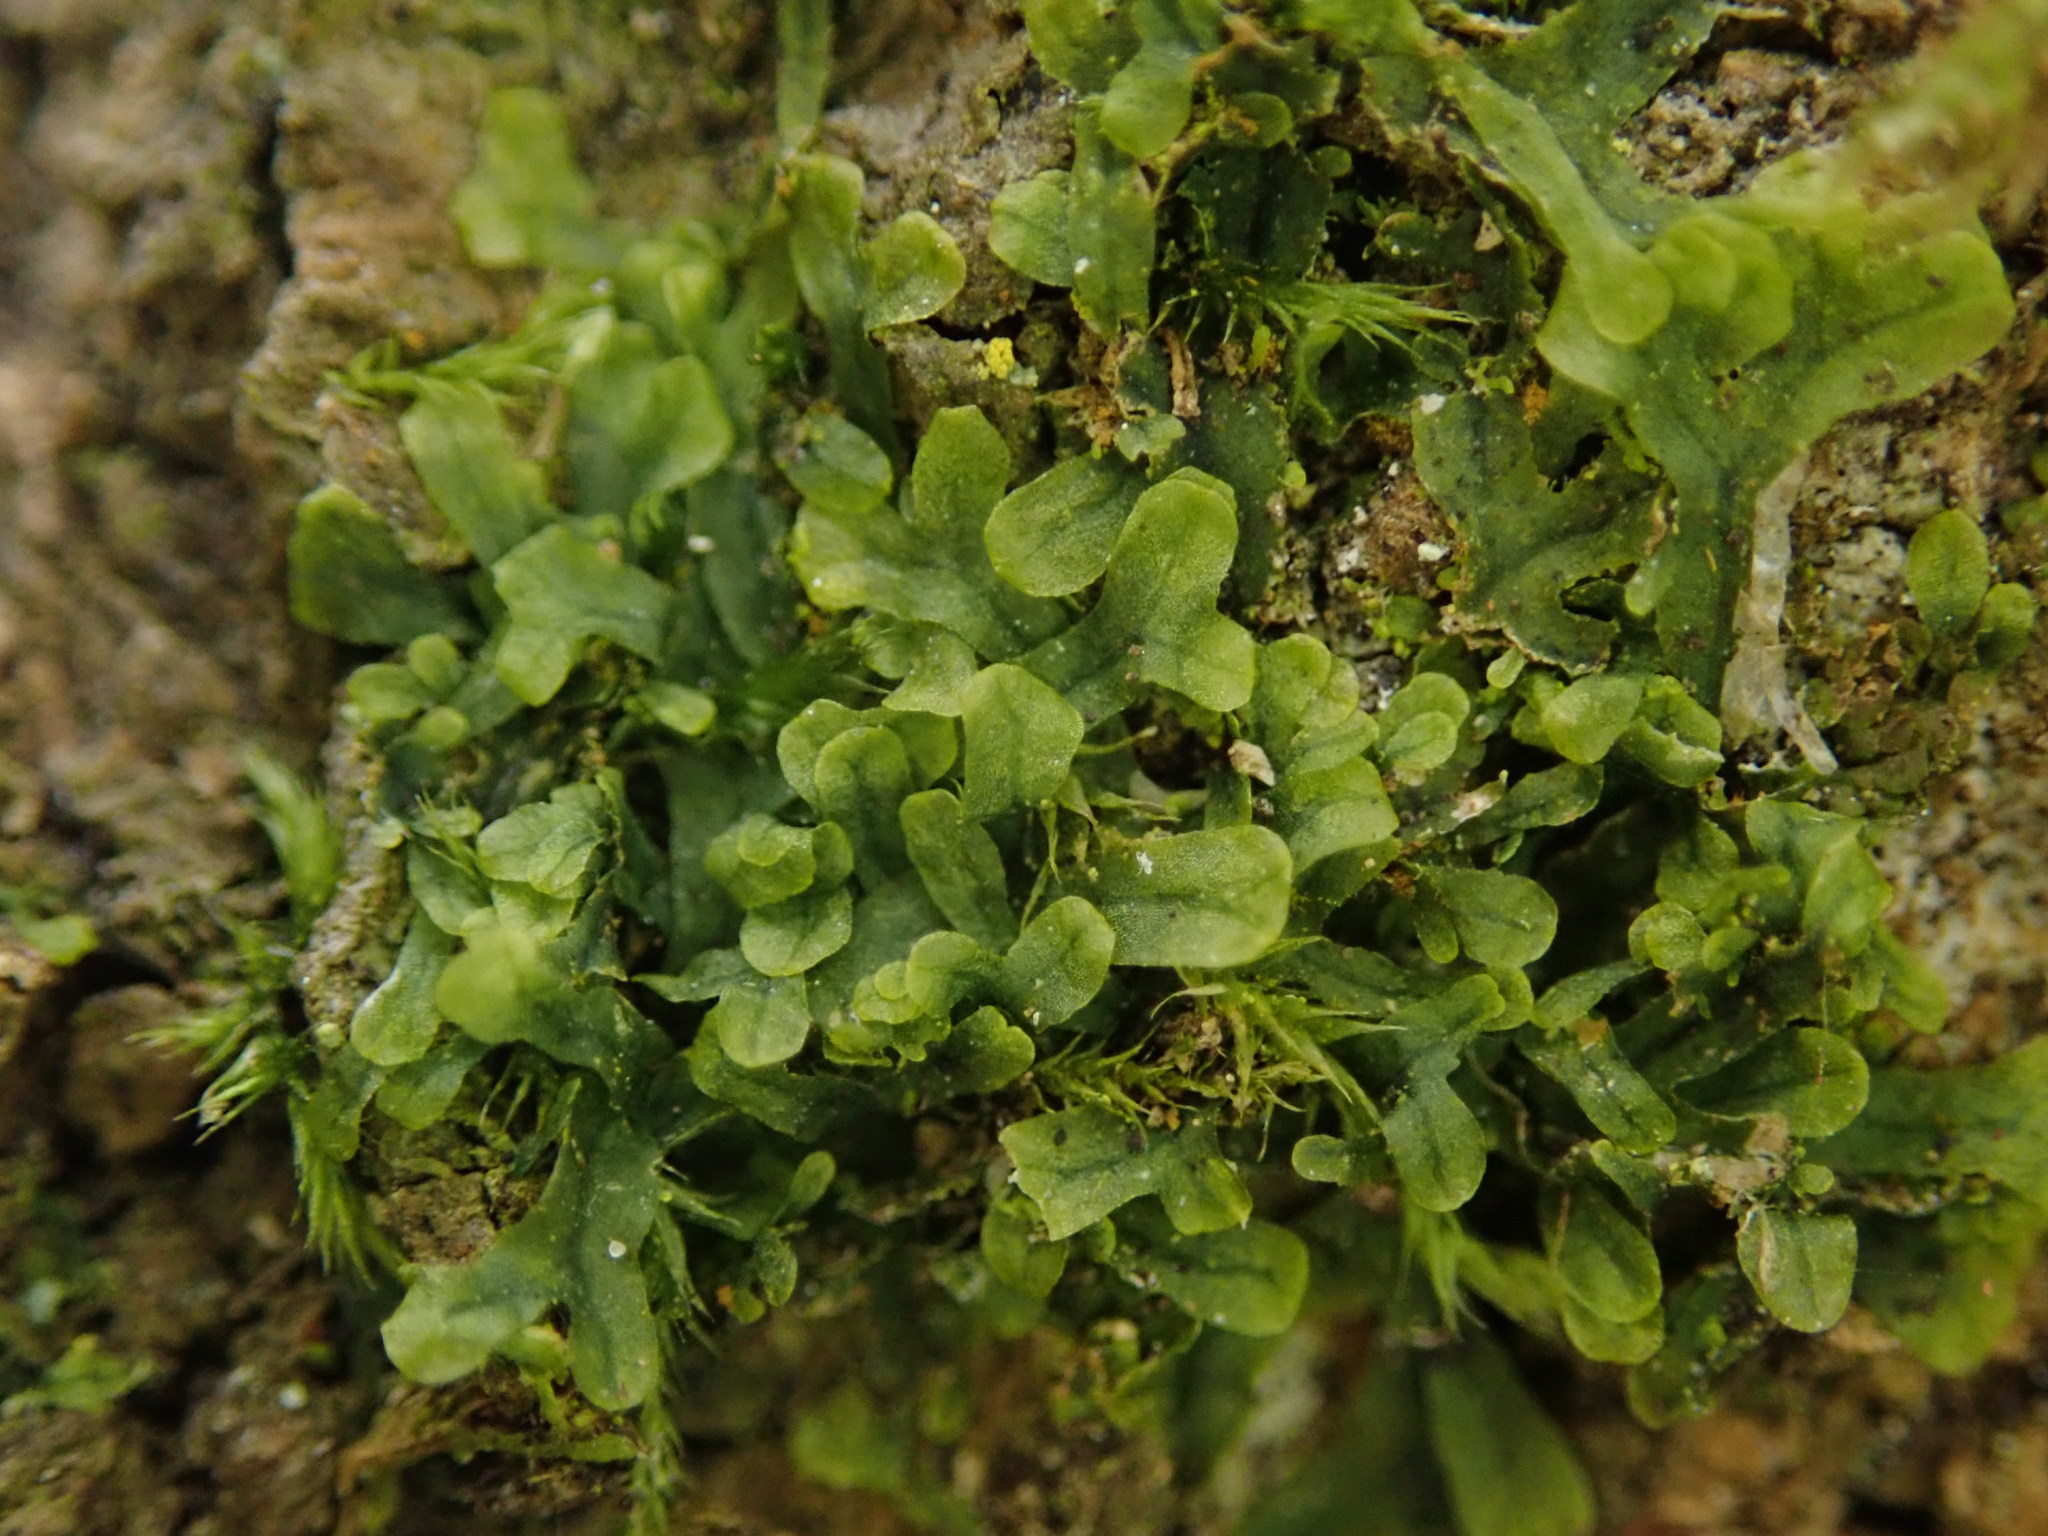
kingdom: Plantae
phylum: Marchantiophyta
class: Jungermanniopsida
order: Metzgeriales
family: Metzgeriaceae
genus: Metzgeria
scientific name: Metzgeria furcata
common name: Forked veilwort
